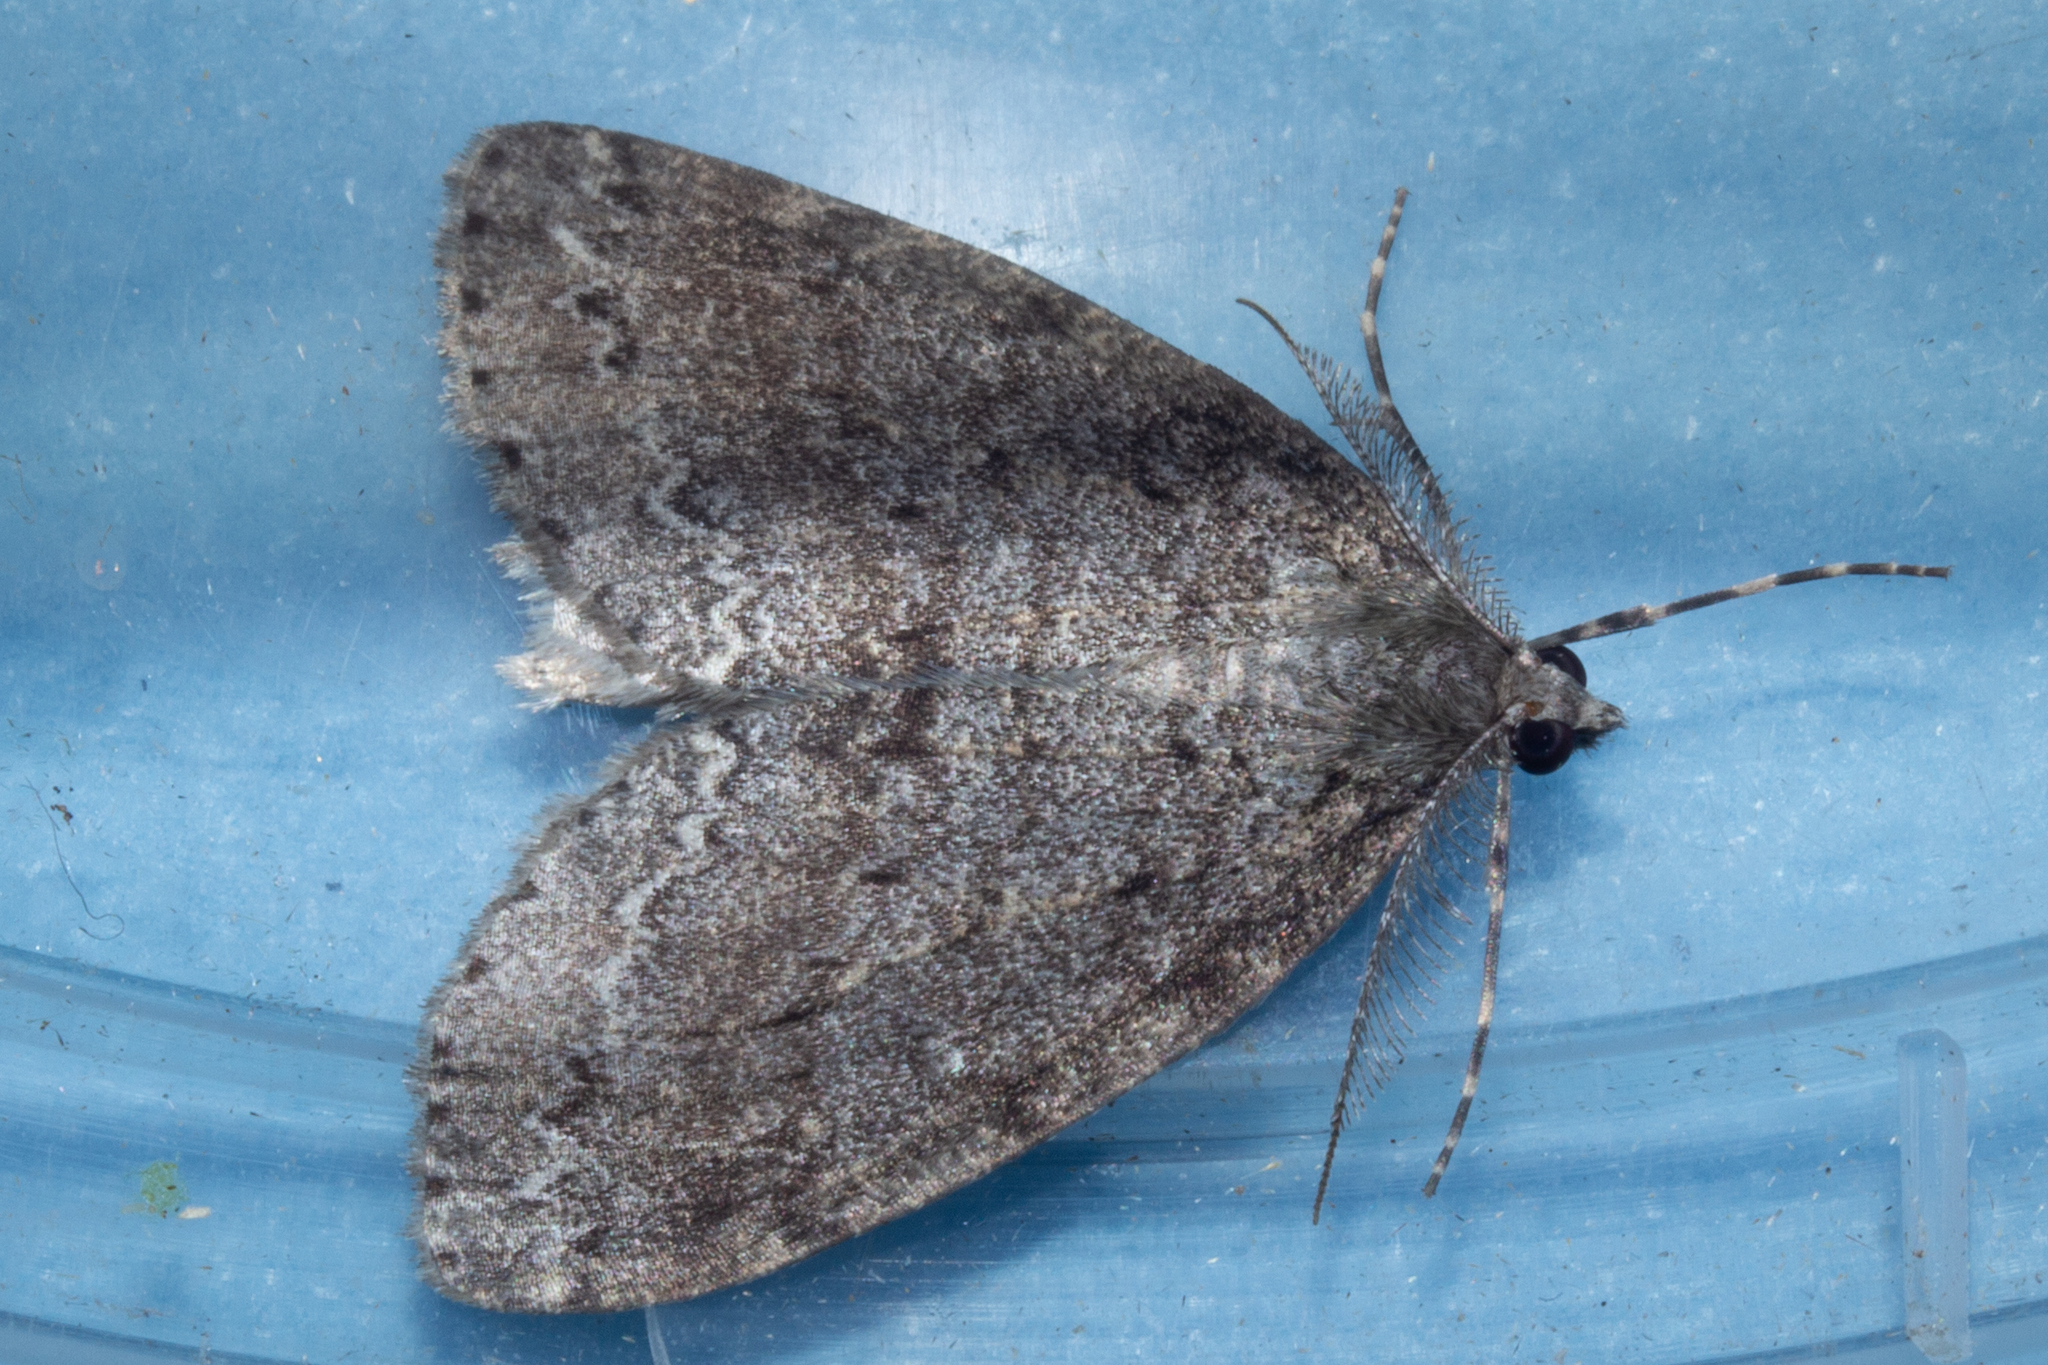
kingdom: Animalia
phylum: Arthropoda
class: Insecta
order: Lepidoptera
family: Geometridae
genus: Pseudocoremia
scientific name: Pseudocoremia fenerata
